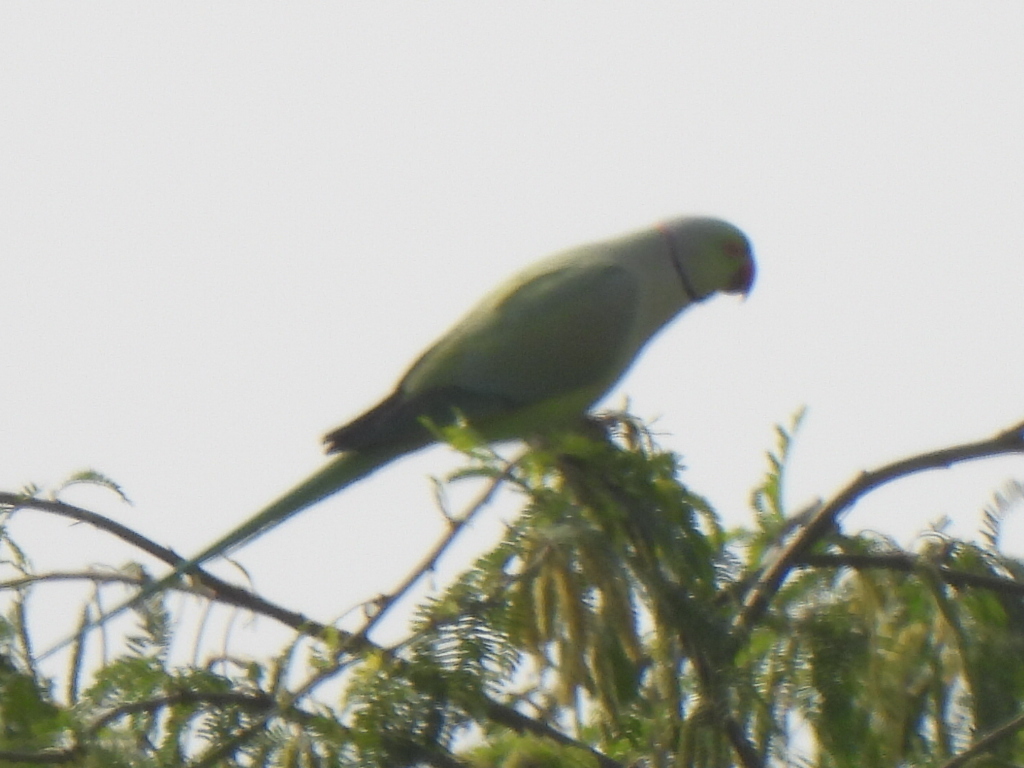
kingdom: Animalia
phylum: Chordata
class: Aves
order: Psittaciformes
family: Psittacidae
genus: Psittacula
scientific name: Psittacula krameri
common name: Rose-ringed parakeet
